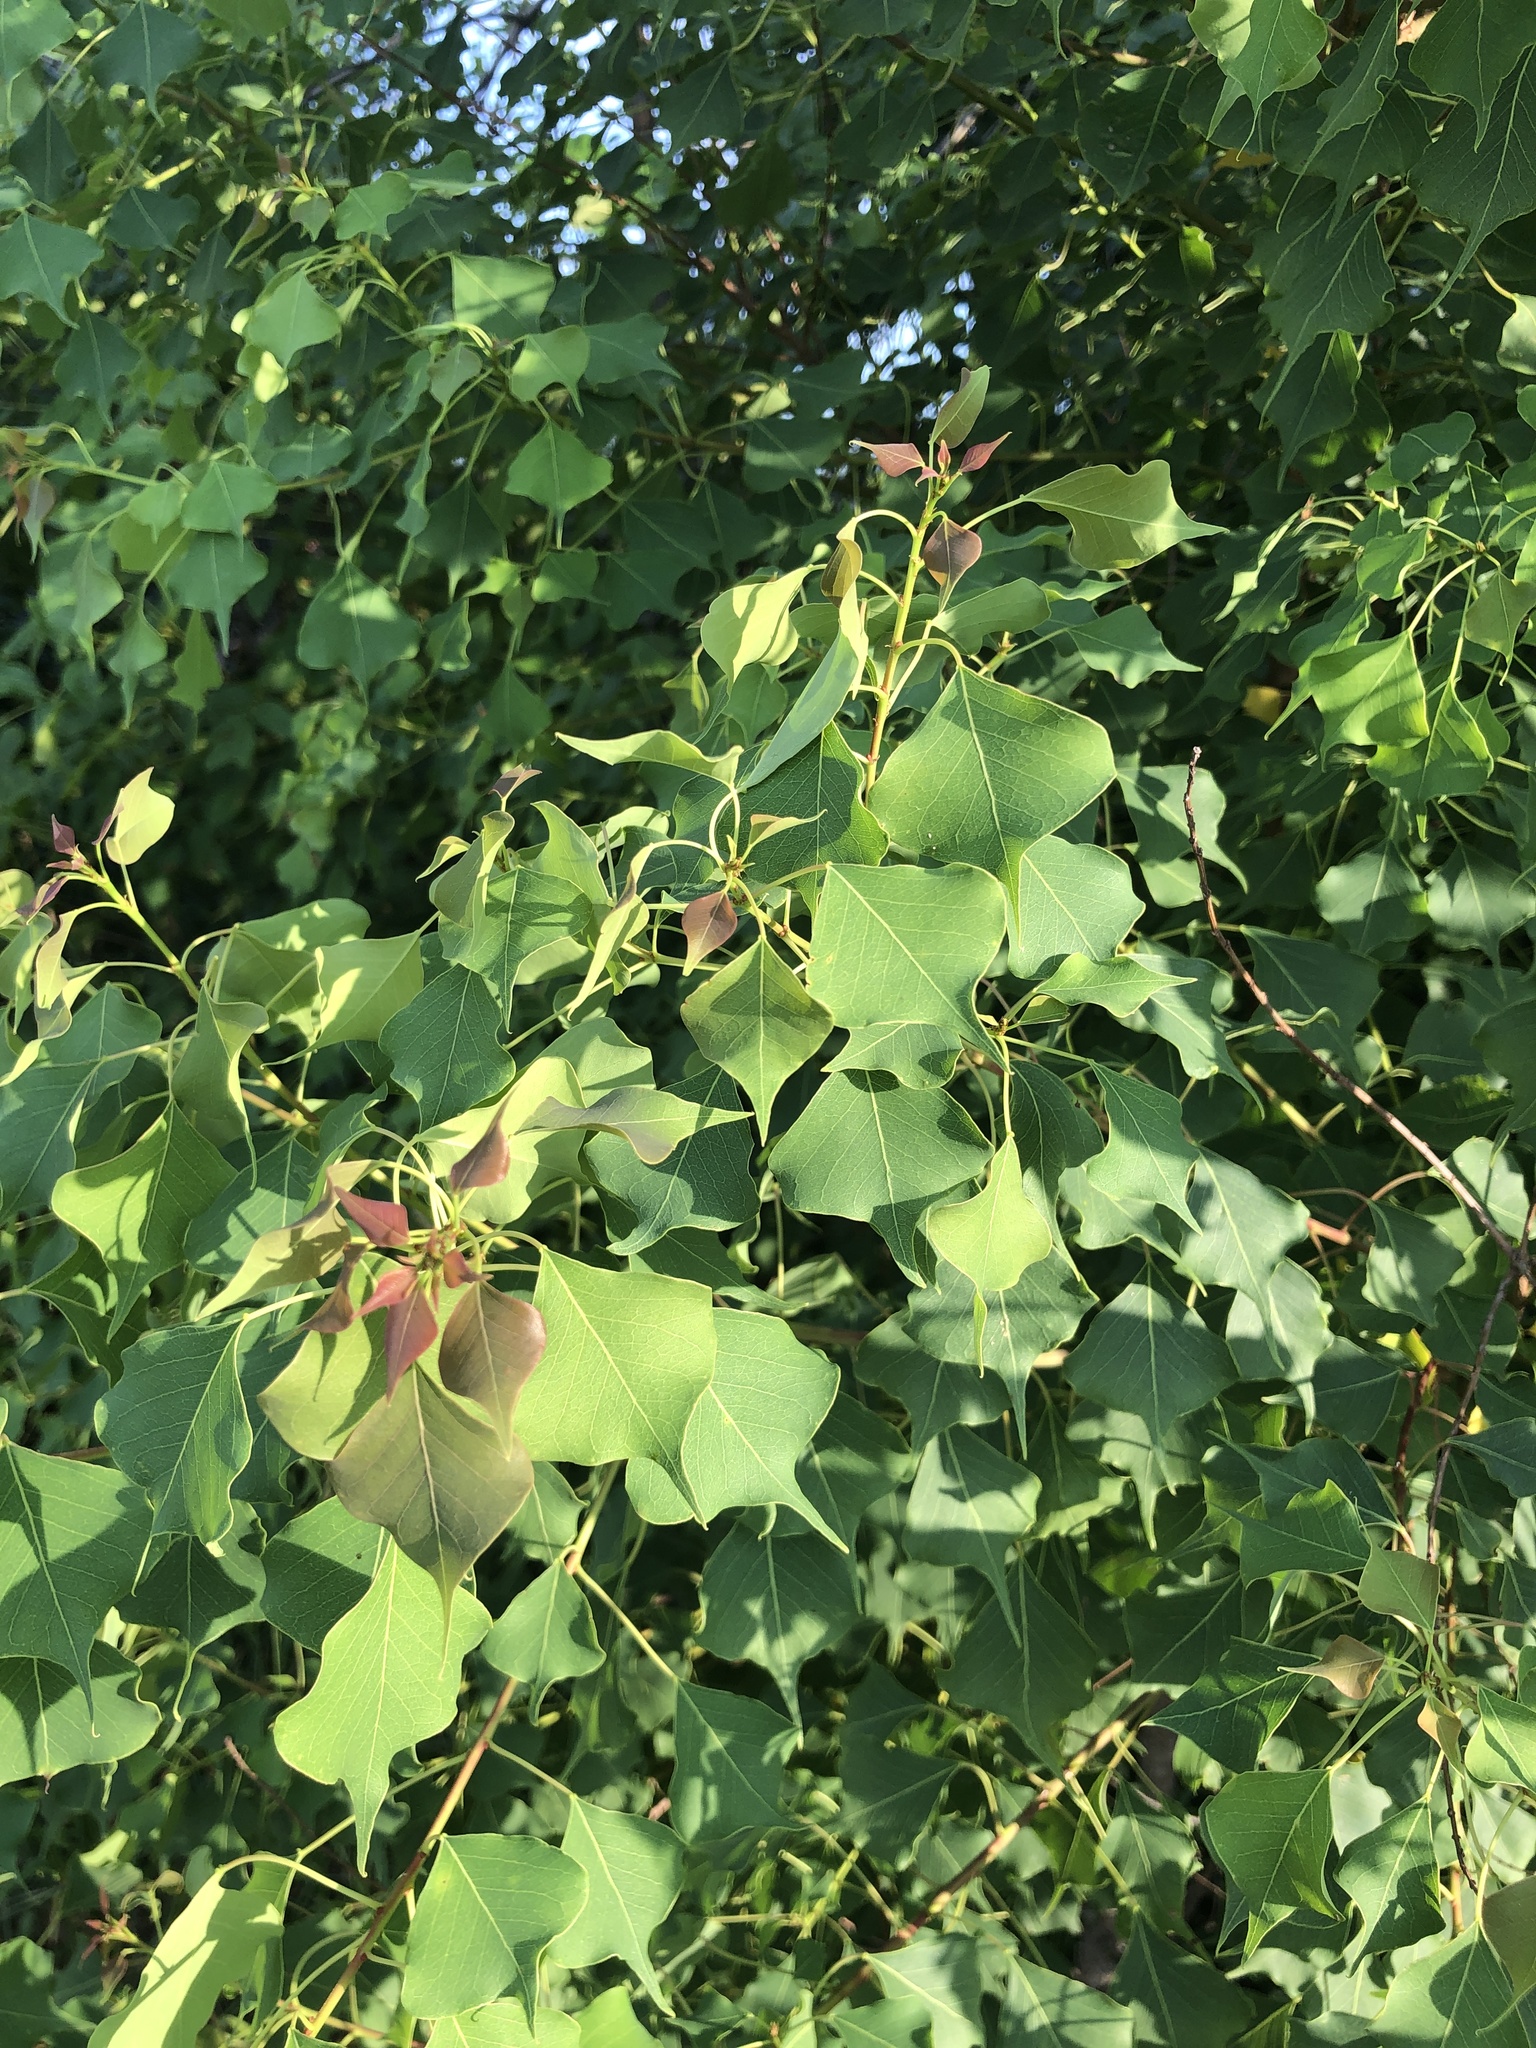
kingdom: Plantae
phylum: Tracheophyta
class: Magnoliopsida
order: Malpighiales
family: Euphorbiaceae
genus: Triadica
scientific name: Triadica sebifera
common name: Chinese tallow
